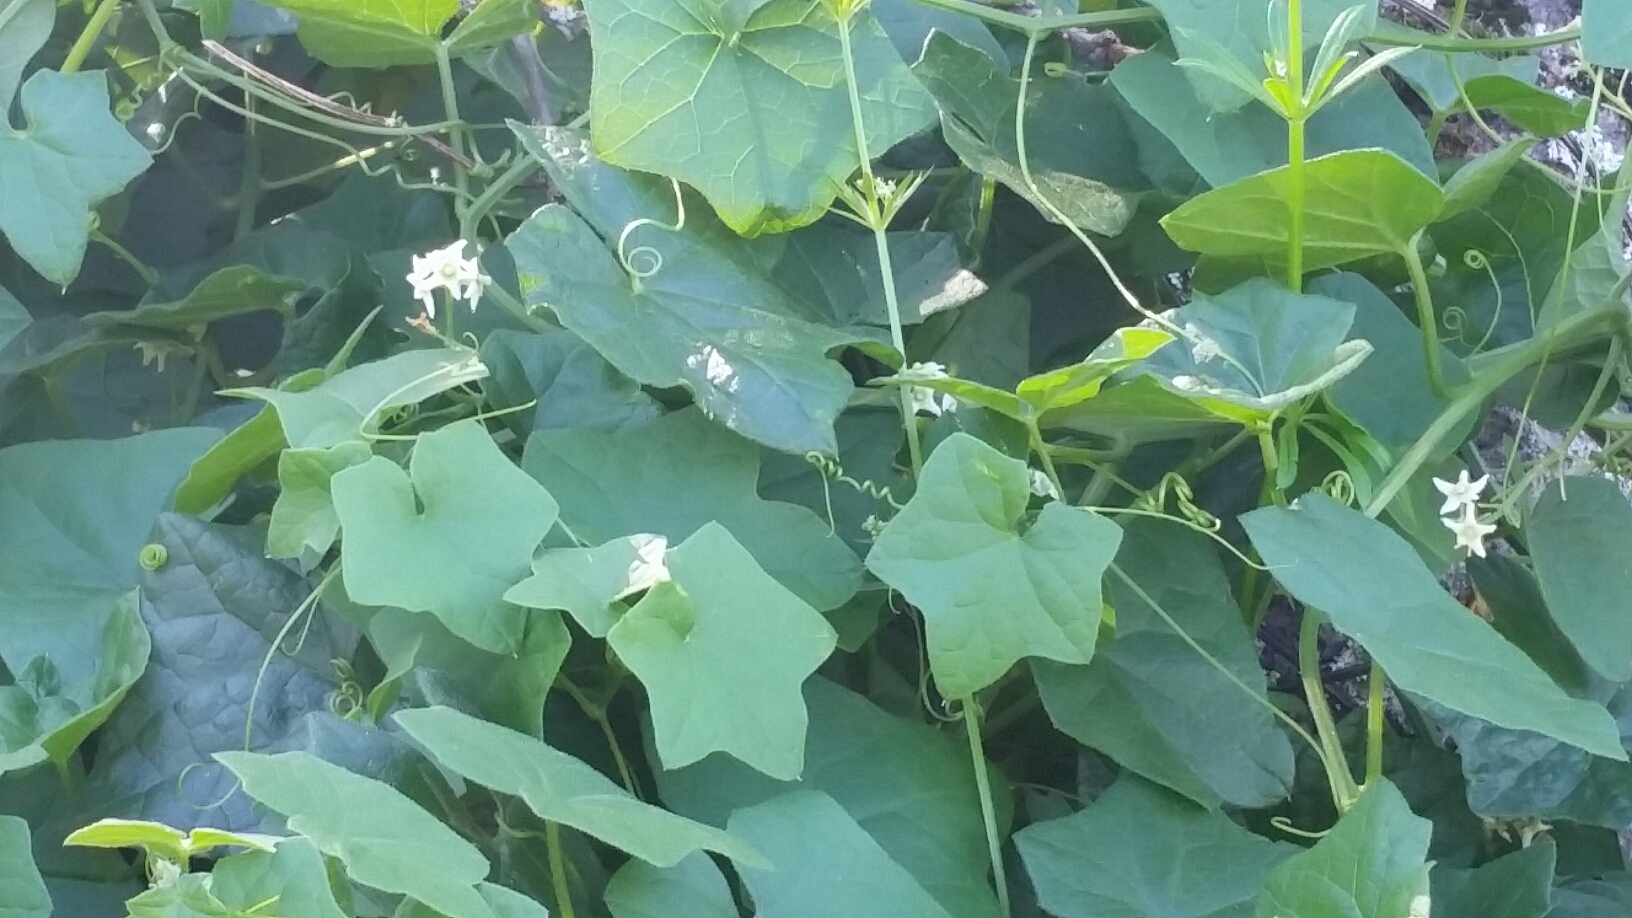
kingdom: Plantae
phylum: Tracheophyta
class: Magnoliopsida
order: Cucurbitales
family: Cucurbitaceae
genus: Marah
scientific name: Marah oregana
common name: Coastal manroot
